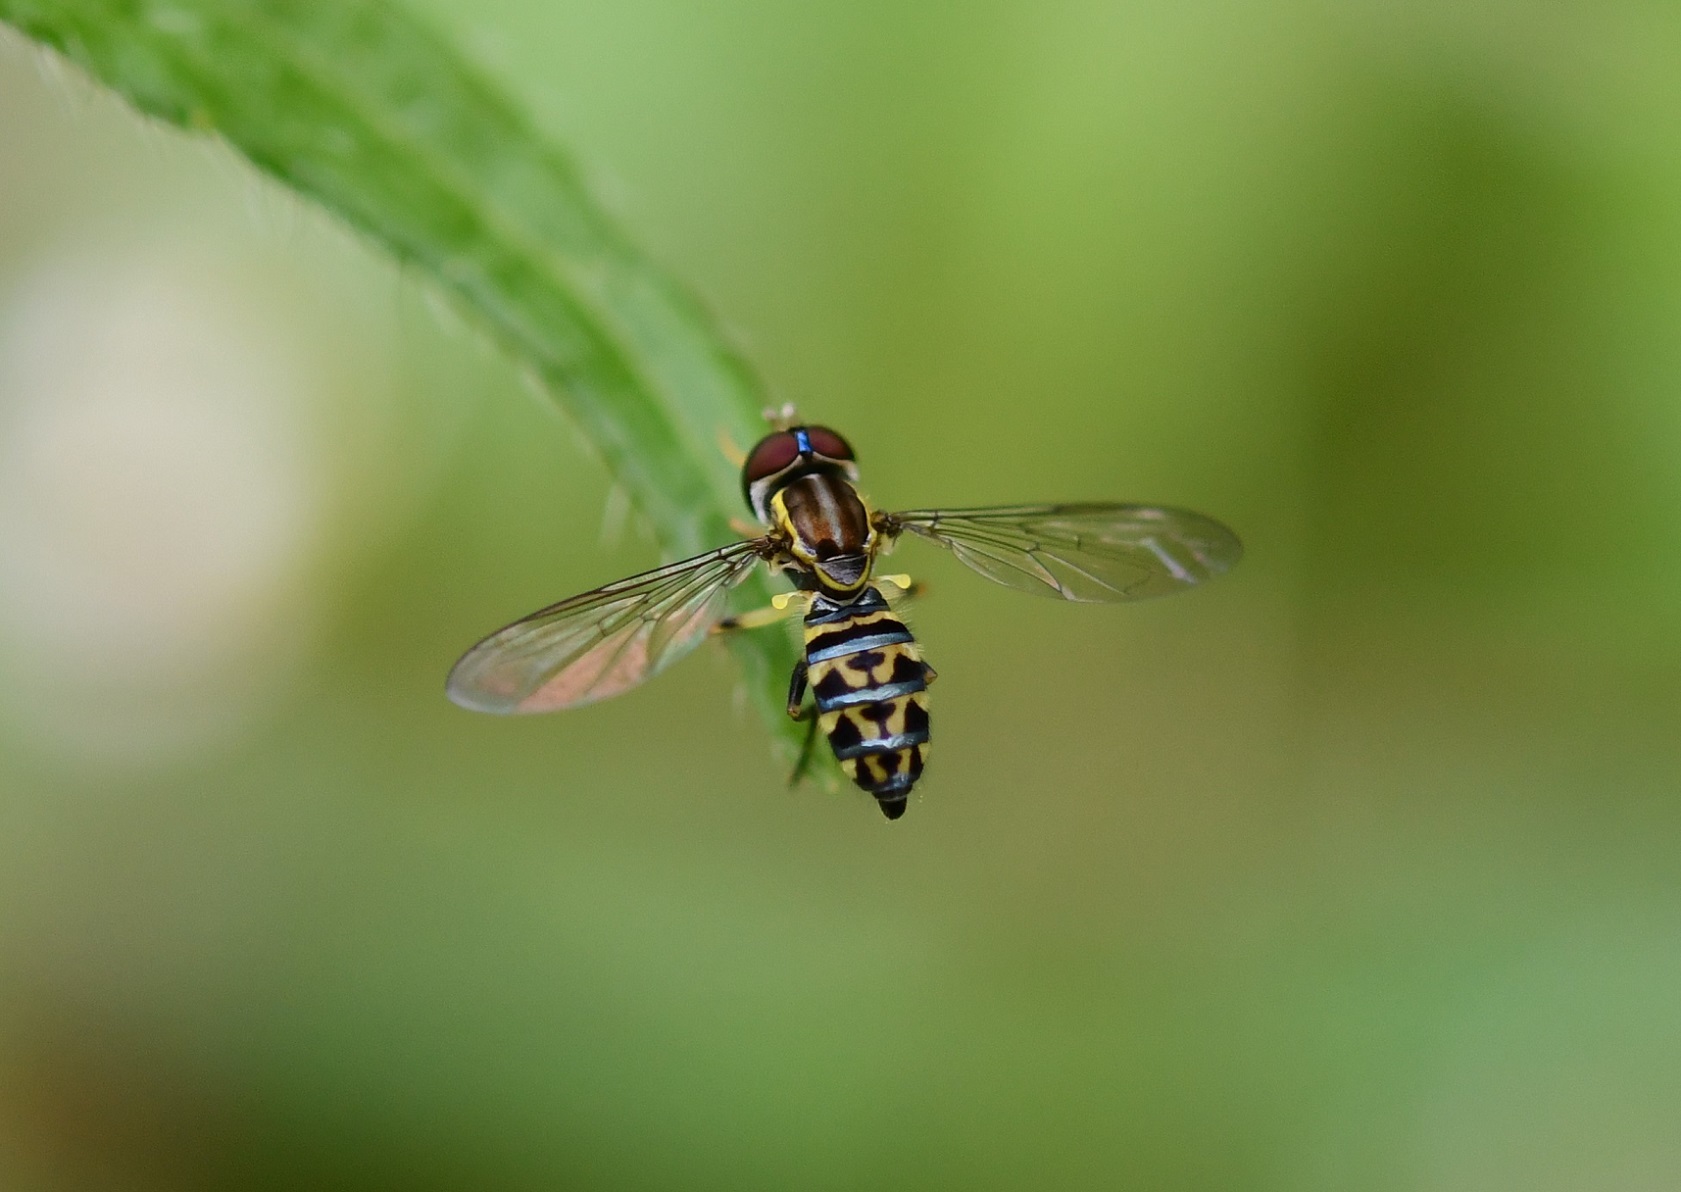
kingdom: Animalia
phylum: Arthropoda
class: Insecta
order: Diptera
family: Syrphidae
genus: Toxomerus
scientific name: Toxomerus virgulatus
